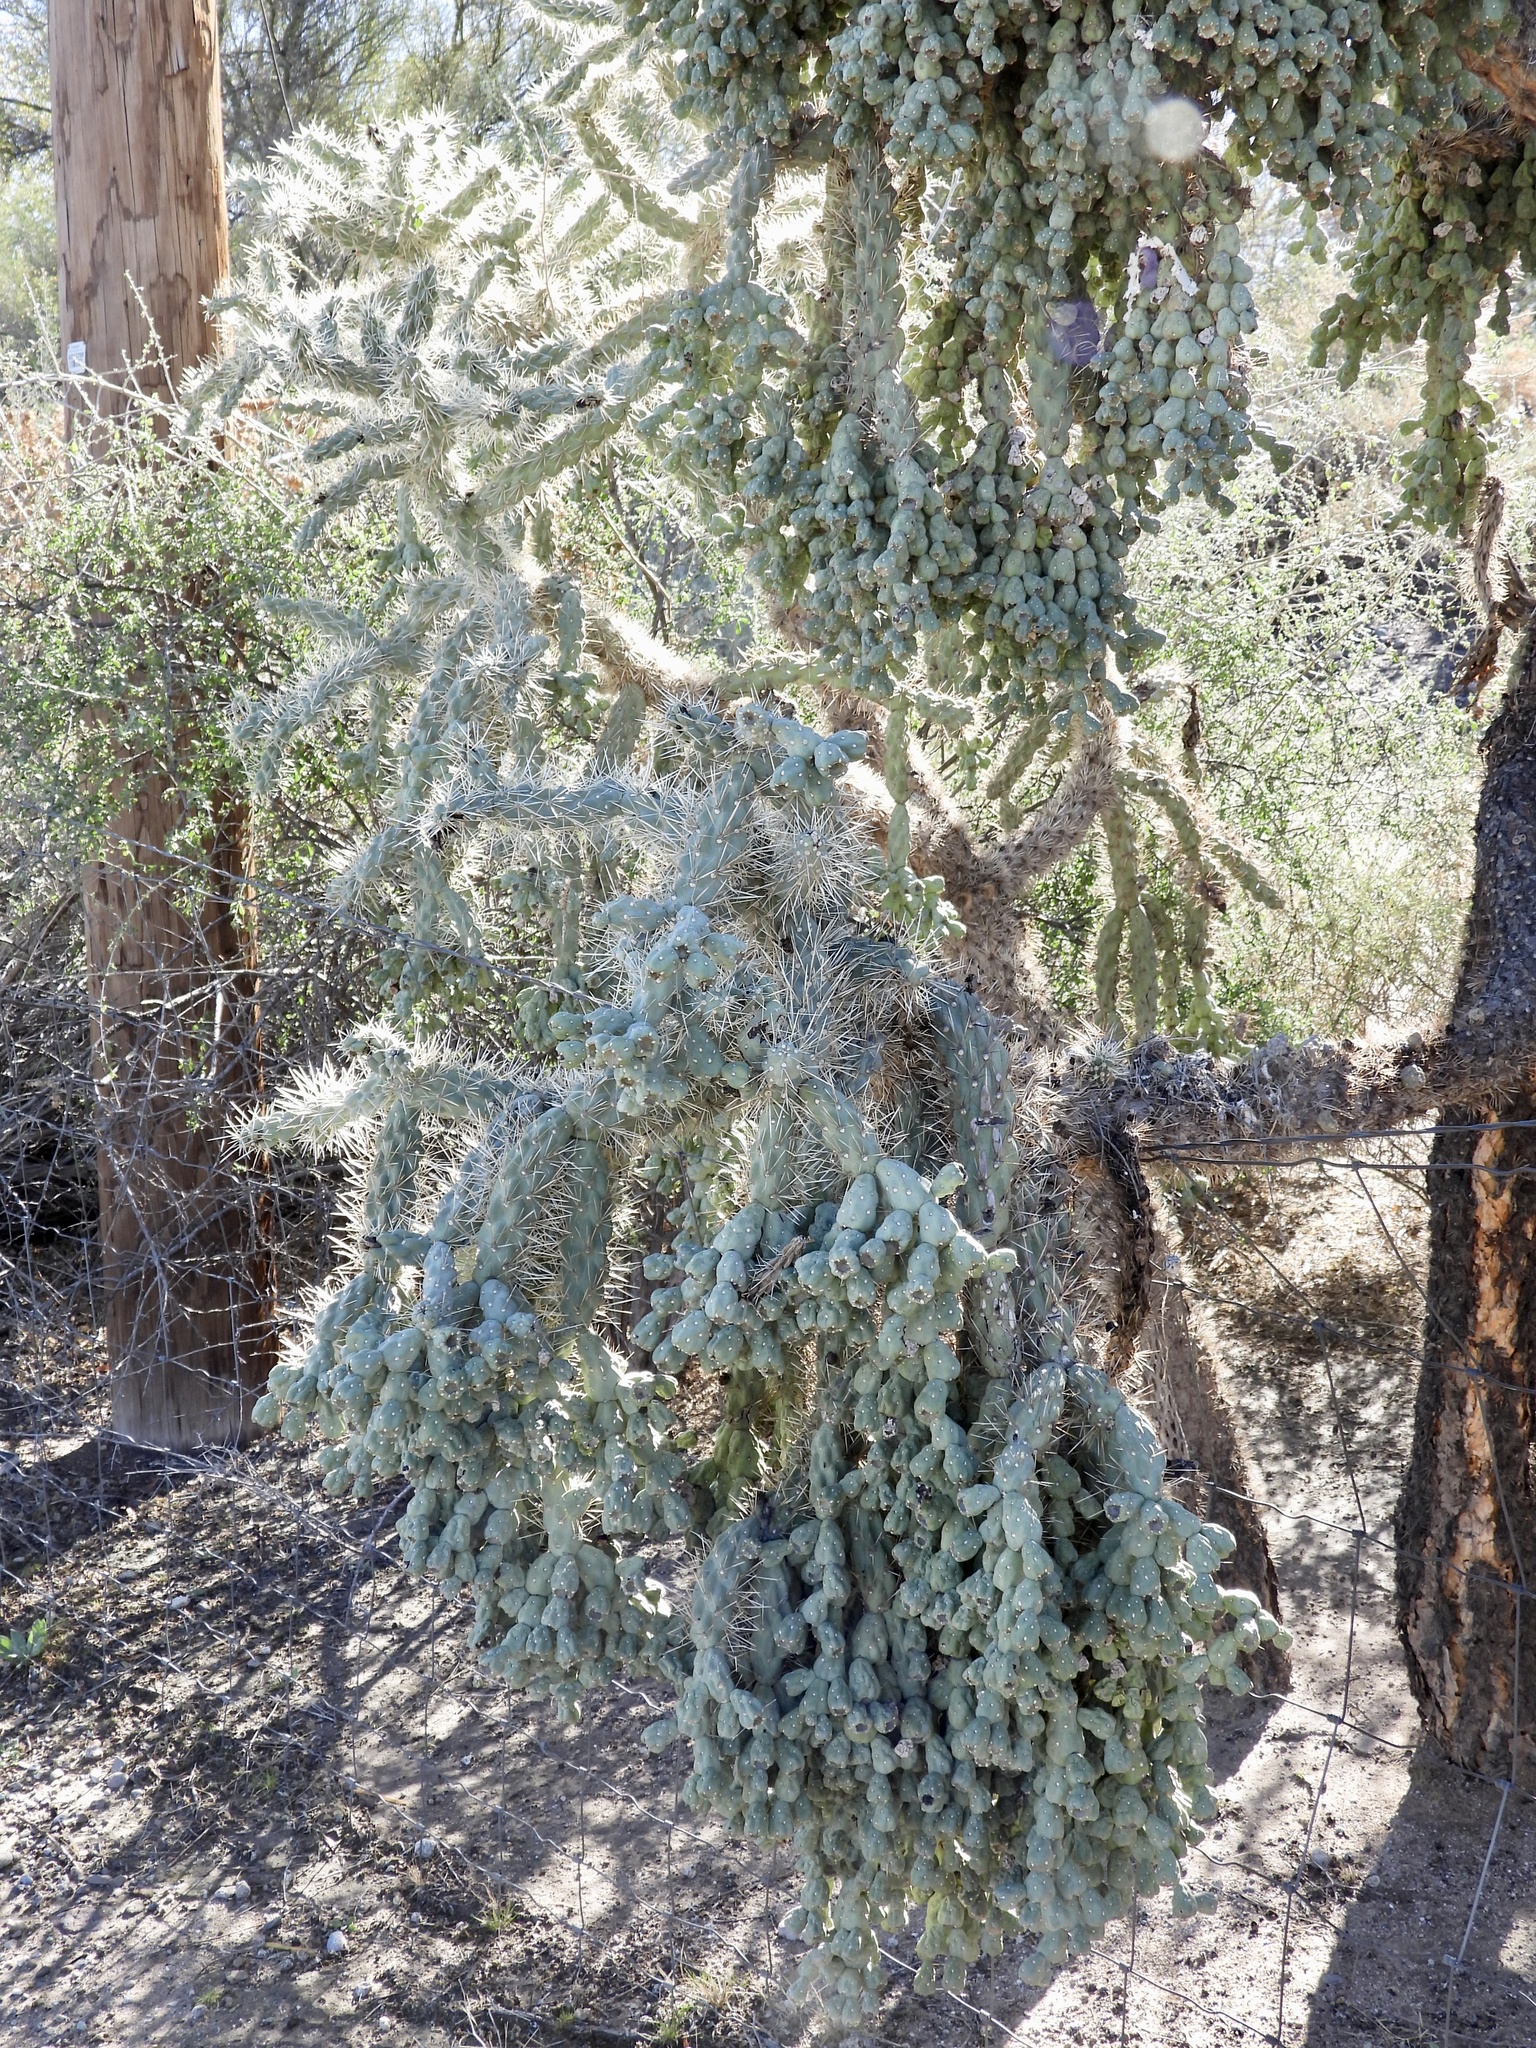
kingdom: Plantae
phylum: Tracheophyta
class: Magnoliopsida
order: Caryophyllales
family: Cactaceae
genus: Cylindropuntia
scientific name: Cylindropuntia fulgida
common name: Jumping cholla
